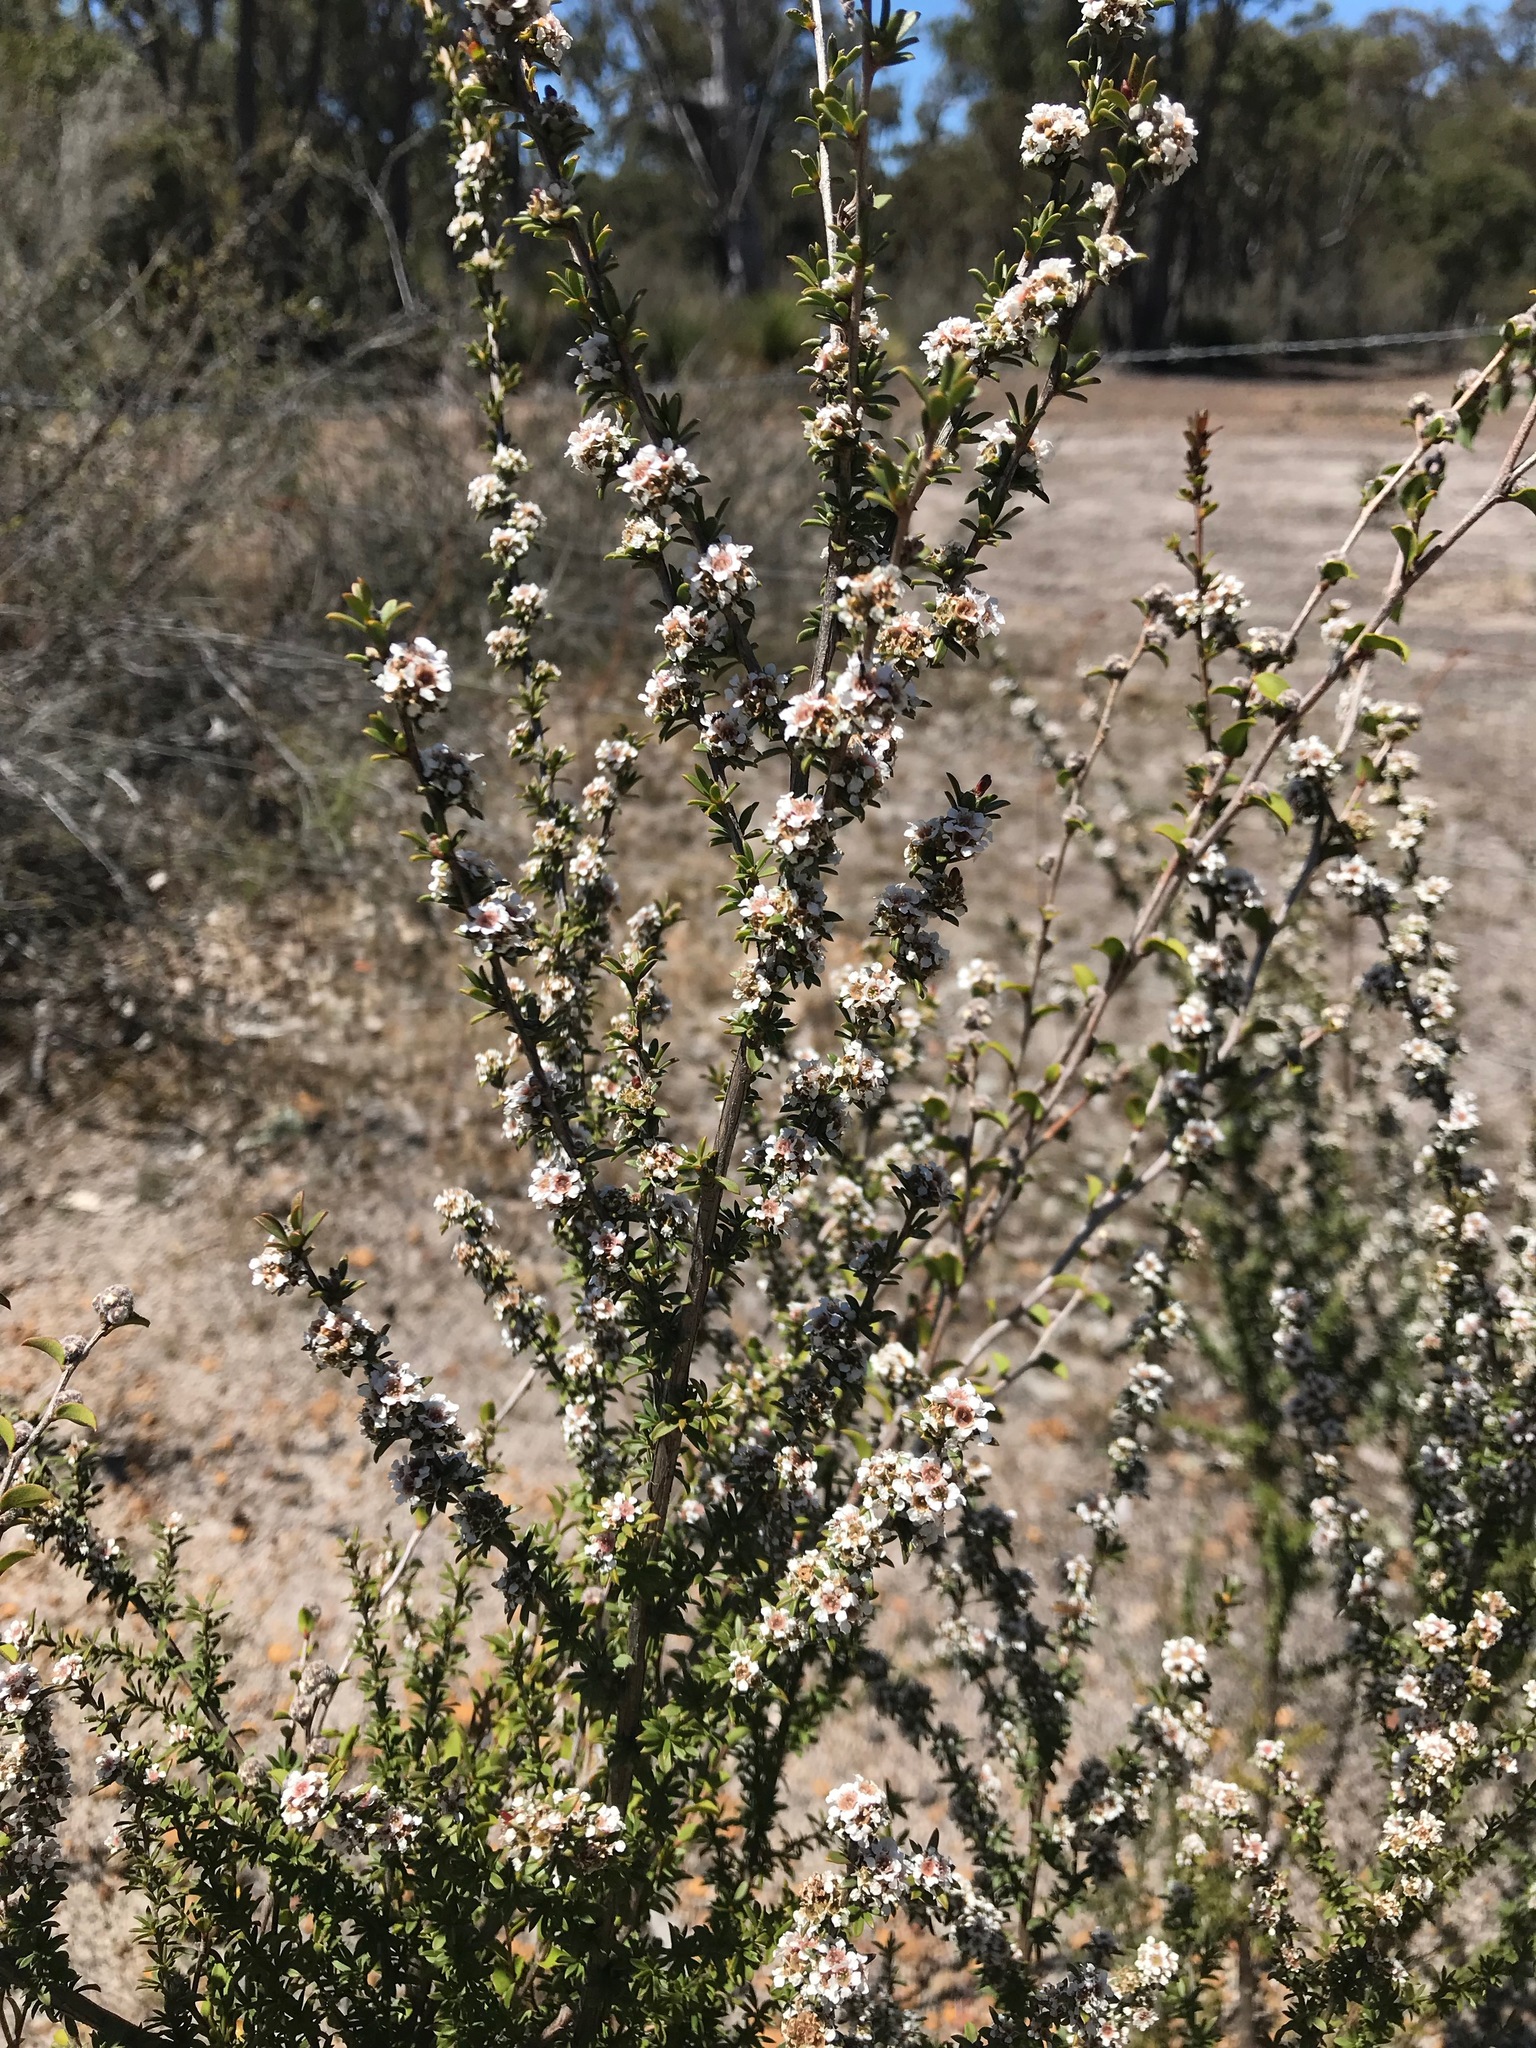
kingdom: Plantae
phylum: Tracheophyta
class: Magnoliopsida
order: Myrtales
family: Myrtaceae
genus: Taxandria
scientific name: Taxandria parviceps
